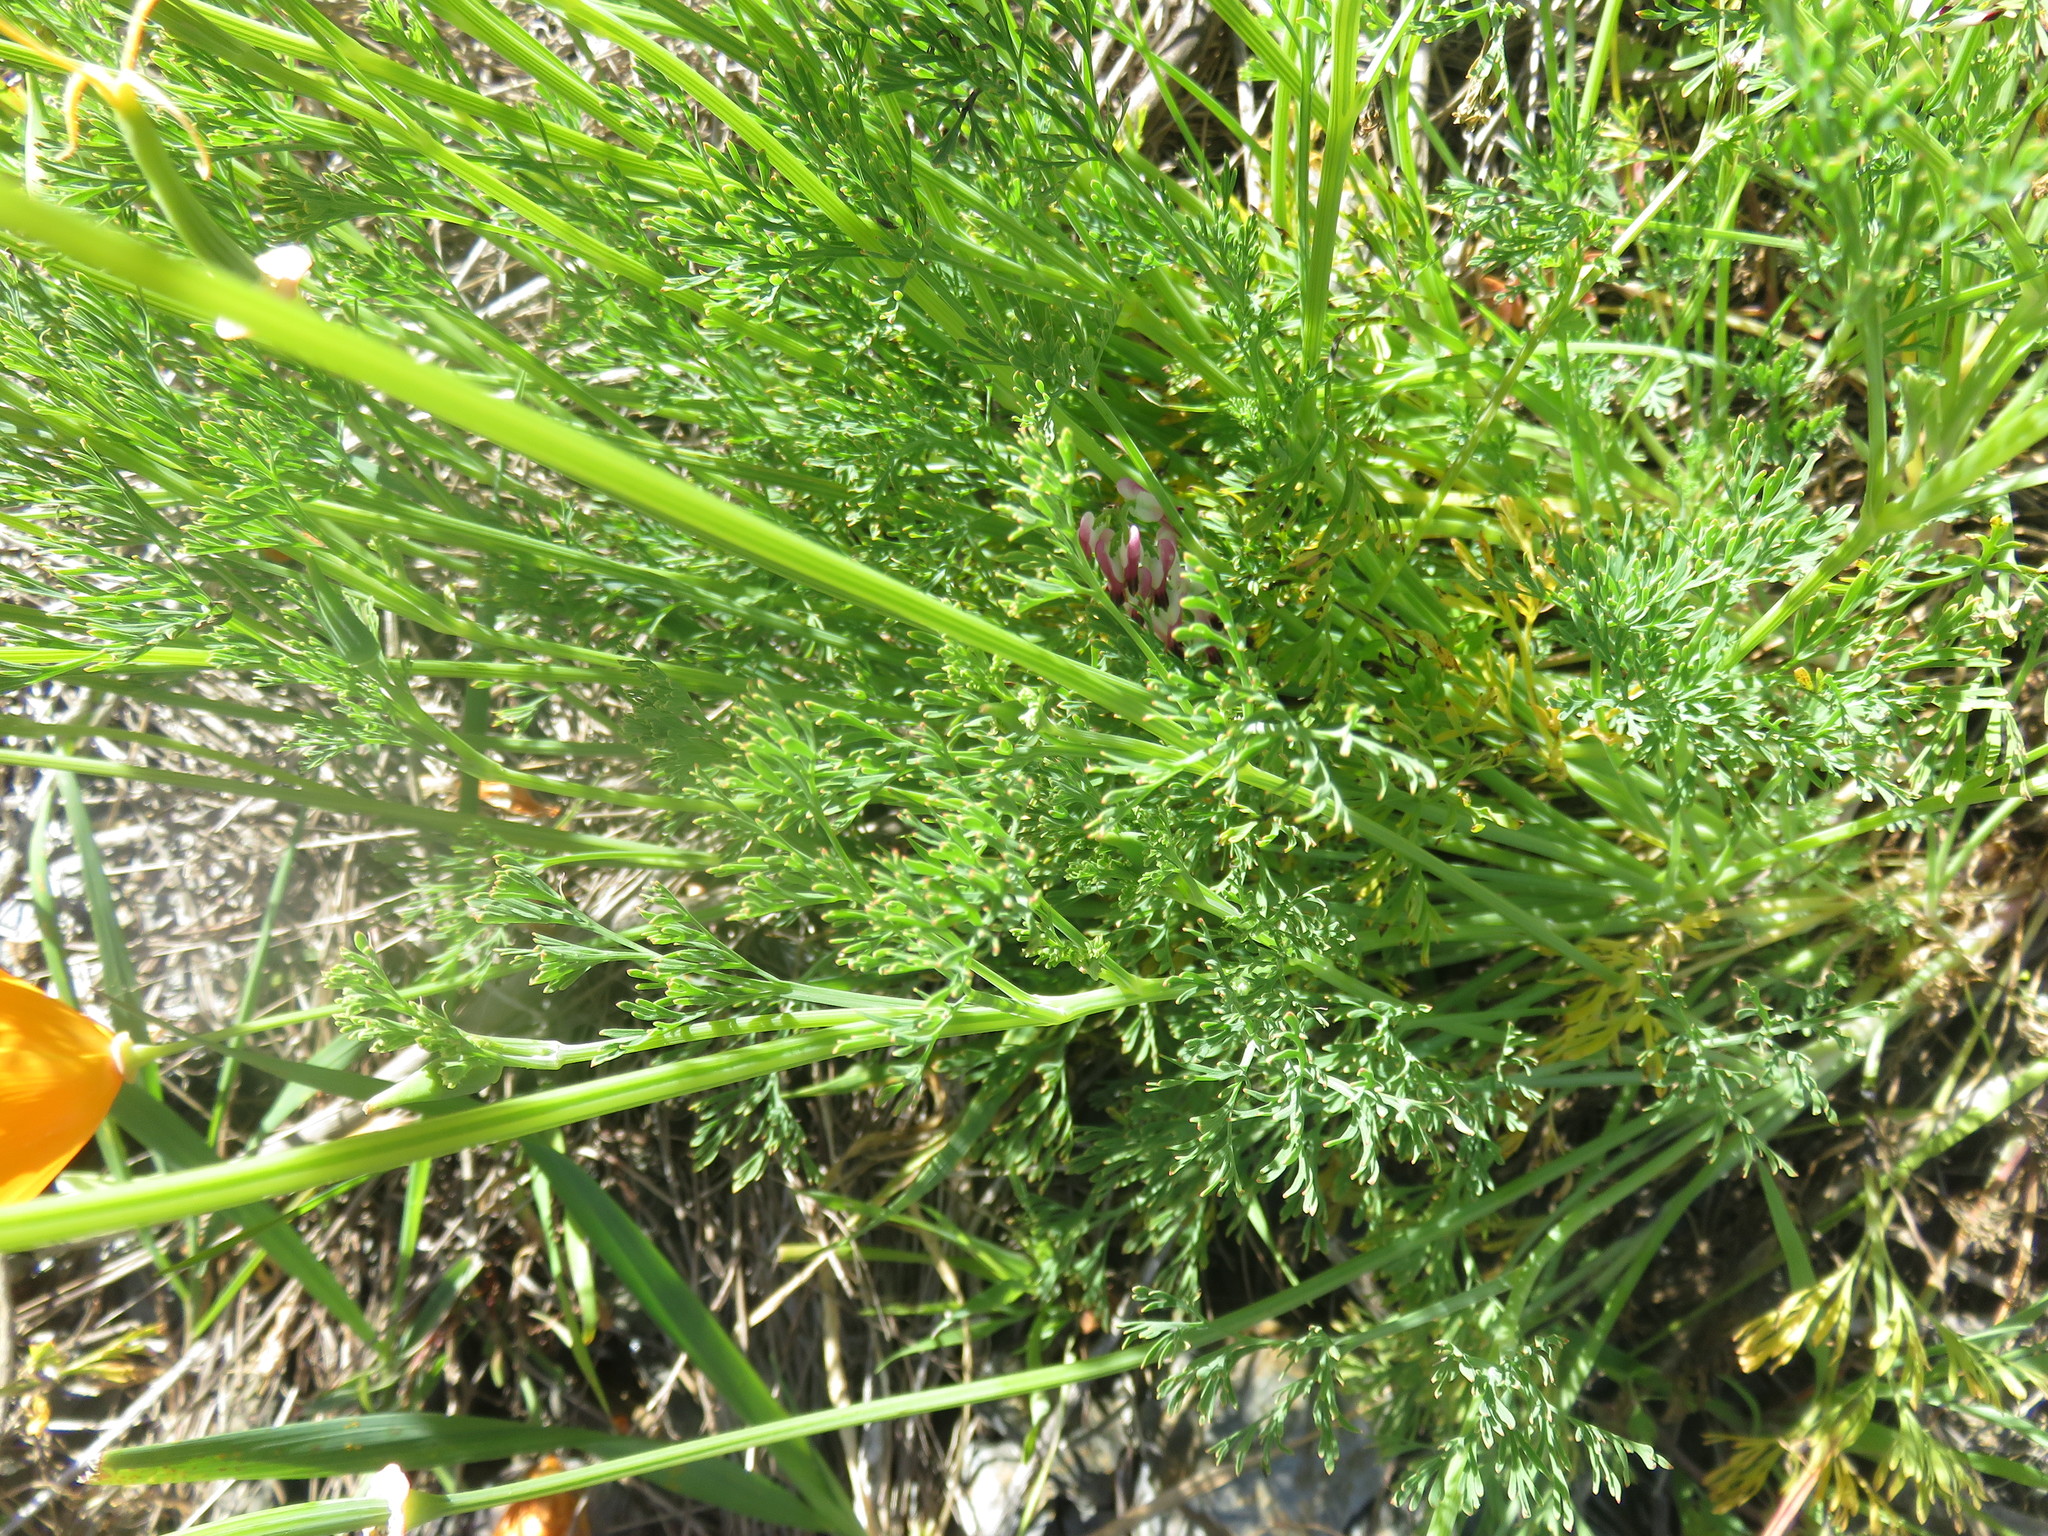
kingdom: Plantae
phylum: Tracheophyta
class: Magnoliopsida
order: Ranunculales
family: Papaveraceae
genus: Eschscholzia
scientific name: Eschscholzia californica
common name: California poppy
